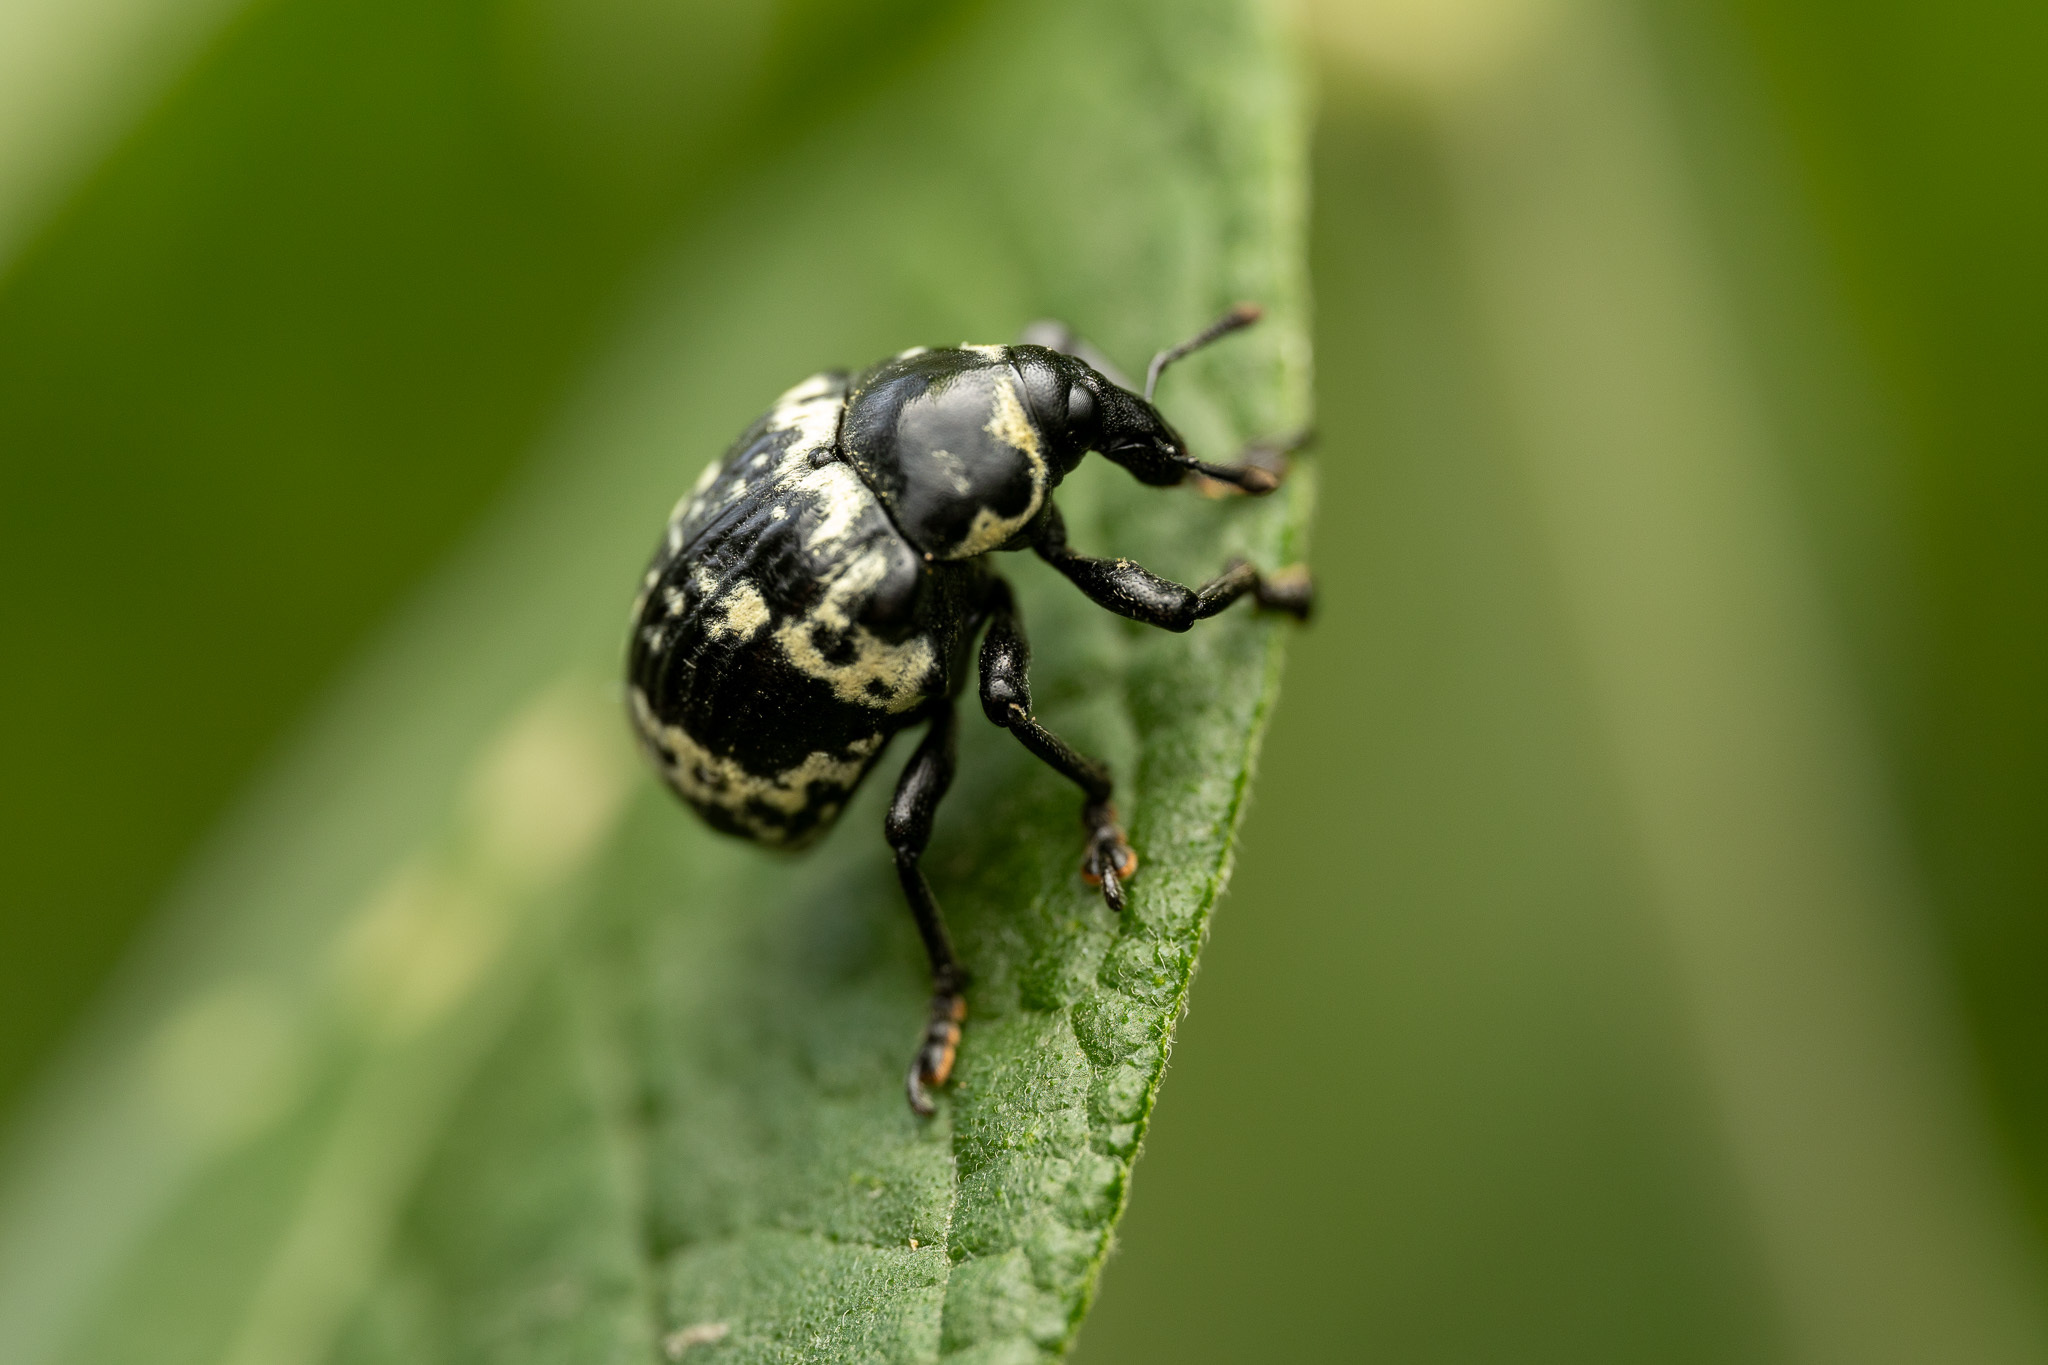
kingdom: Animalia
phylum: Arthropoda
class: Insecta
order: Coleoptera
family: Curculionidae
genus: Sternechus
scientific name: Sternechus extortus
